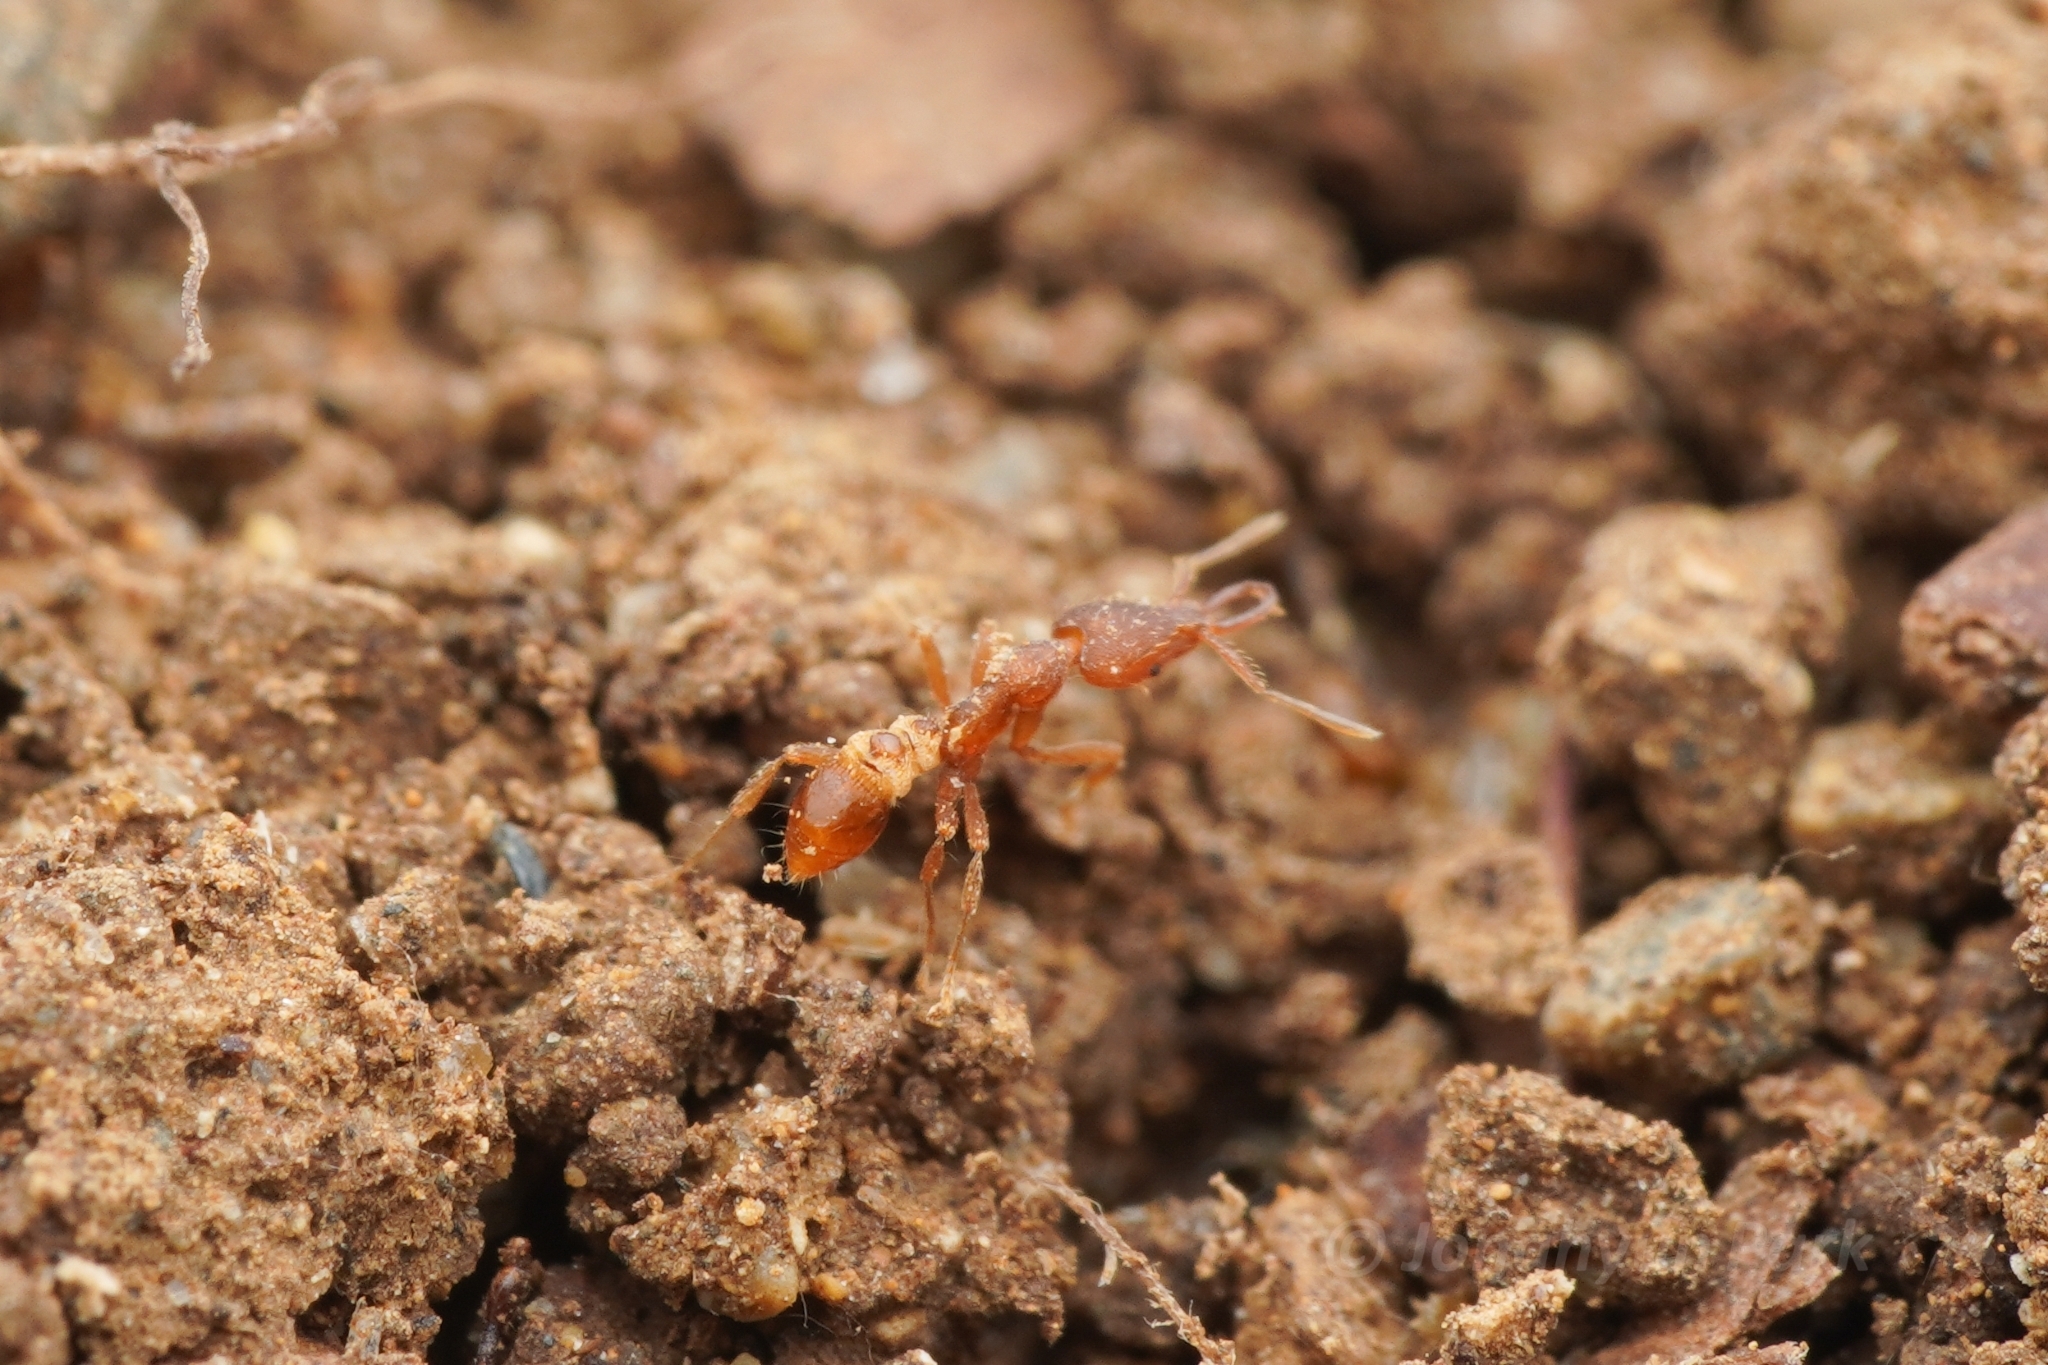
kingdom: Animalia
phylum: Arthropoda
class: Insecta
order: Hymenoptera
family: Formicidae
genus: Strumigenys
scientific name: Strumigenys kumadori
